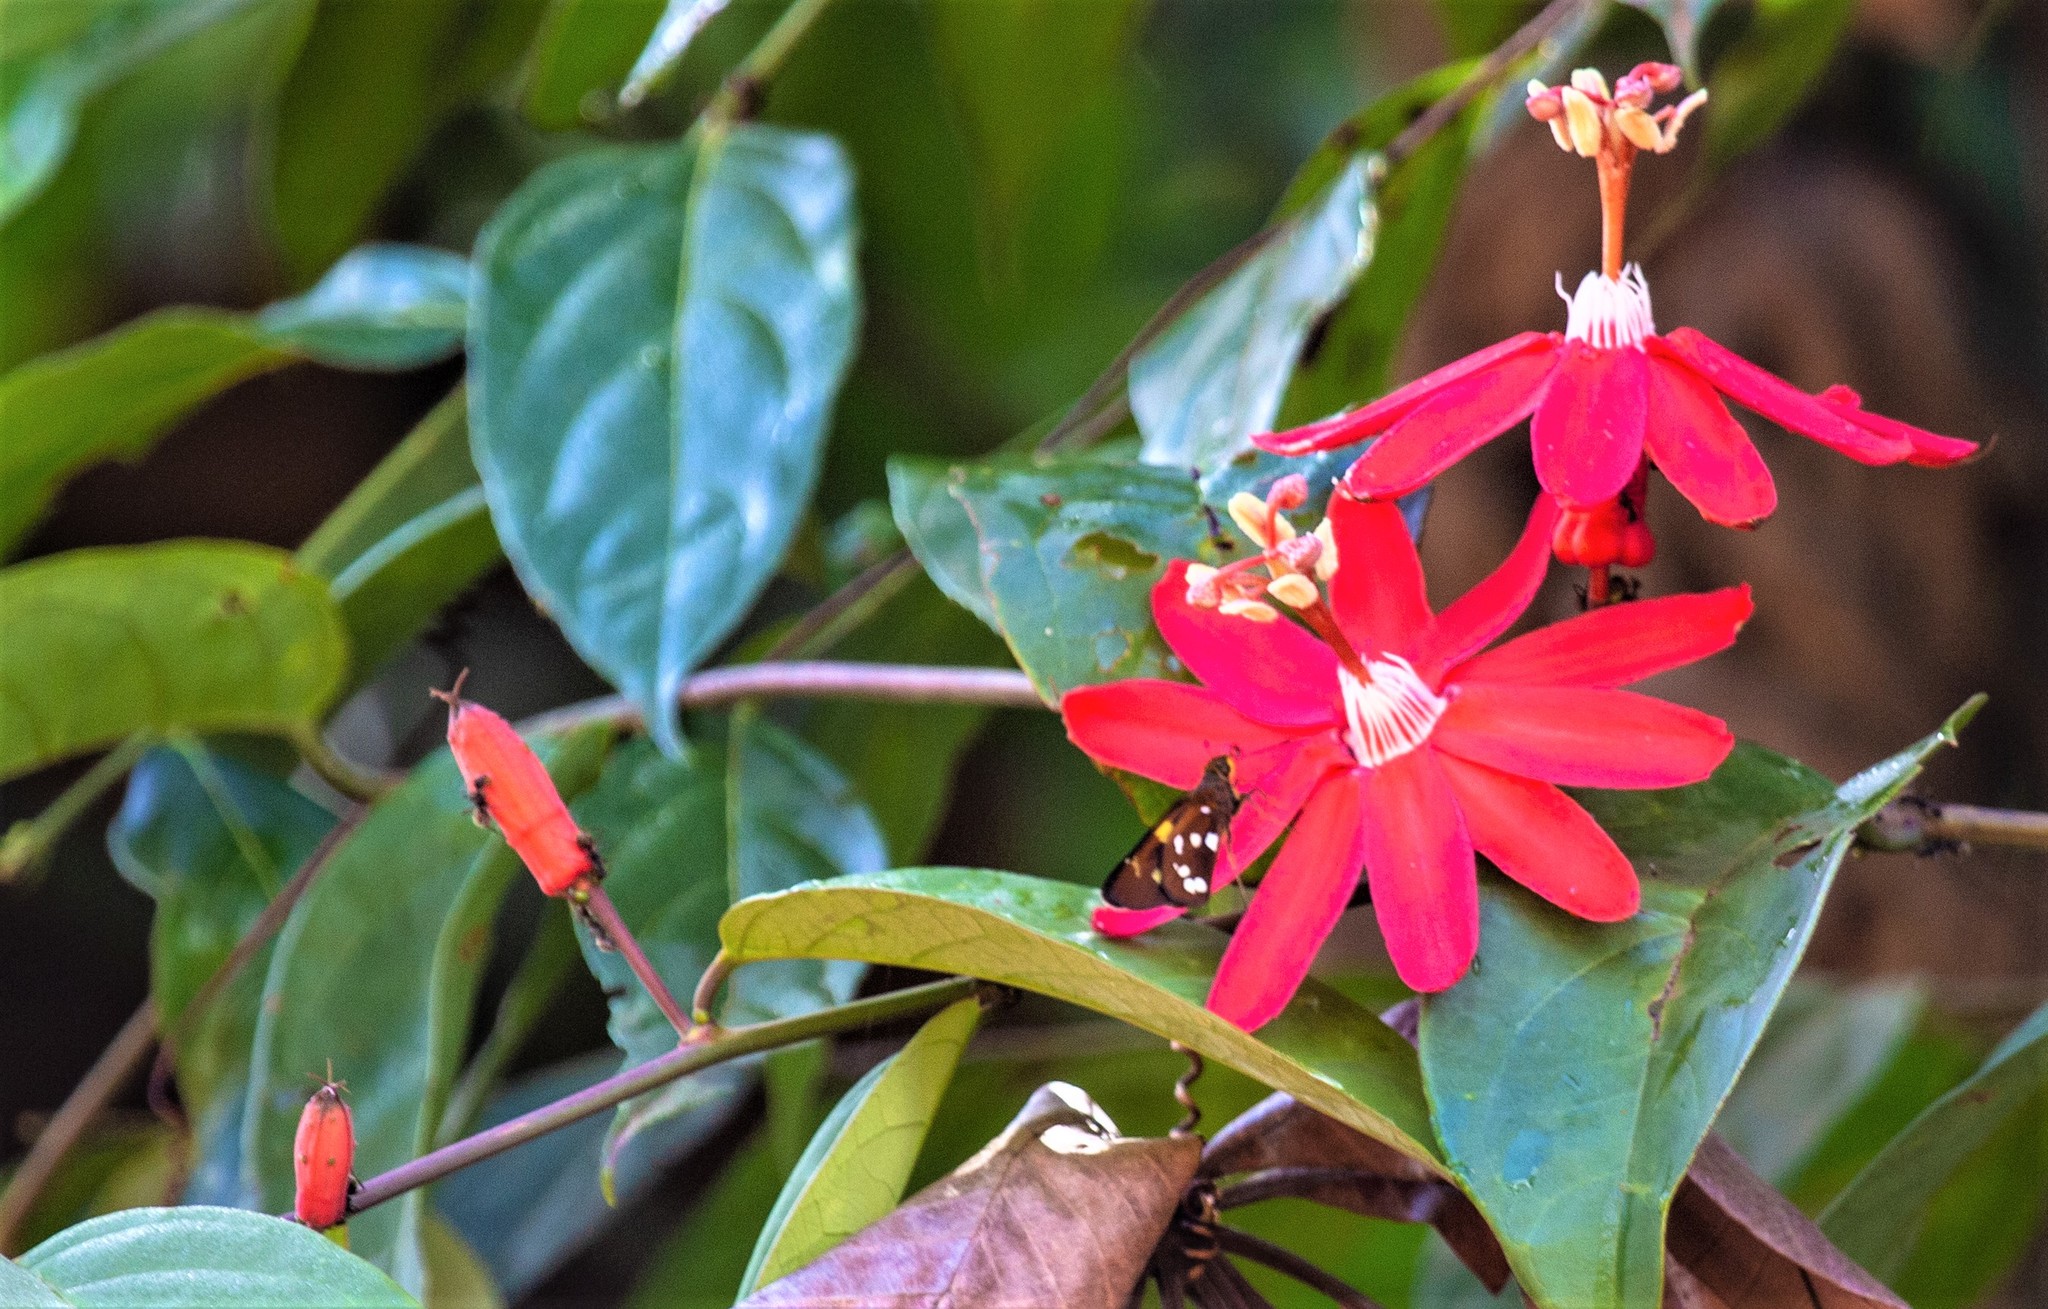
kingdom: Plantae
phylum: Tracheophyta
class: Magnoliopsida
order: Malpighiales
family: Passifloraceae
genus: Passiflora
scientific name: Passiflora glandulosa
